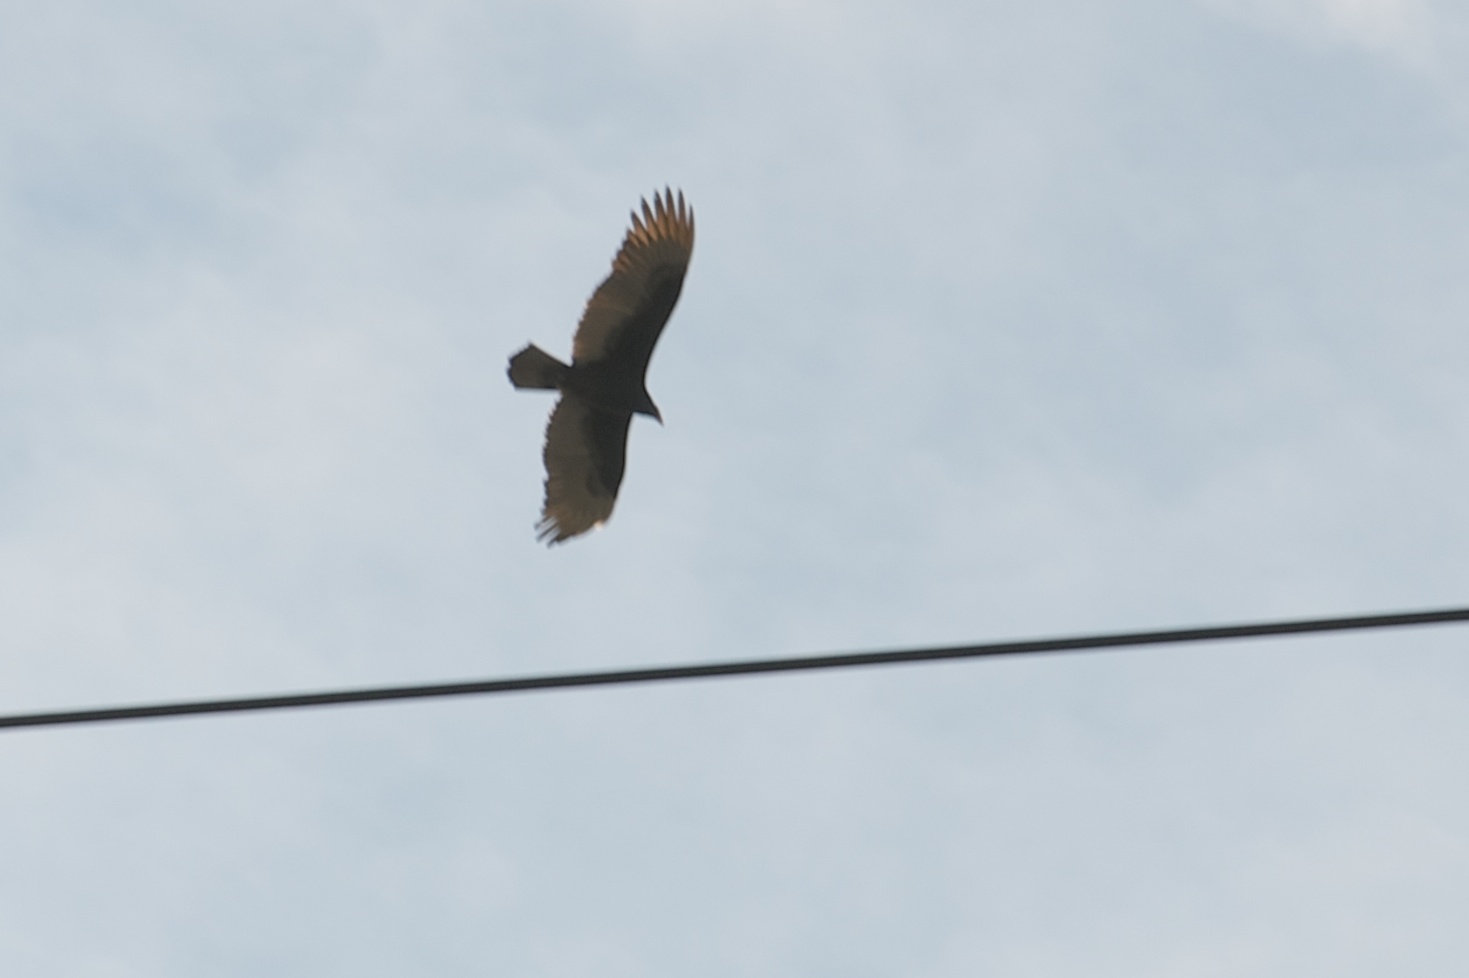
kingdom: Animalia
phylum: Chordata
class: Aves
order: Accipitriformes
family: Cathartidae
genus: Cathartes
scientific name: Cathartes aura
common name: Turkey vulture
